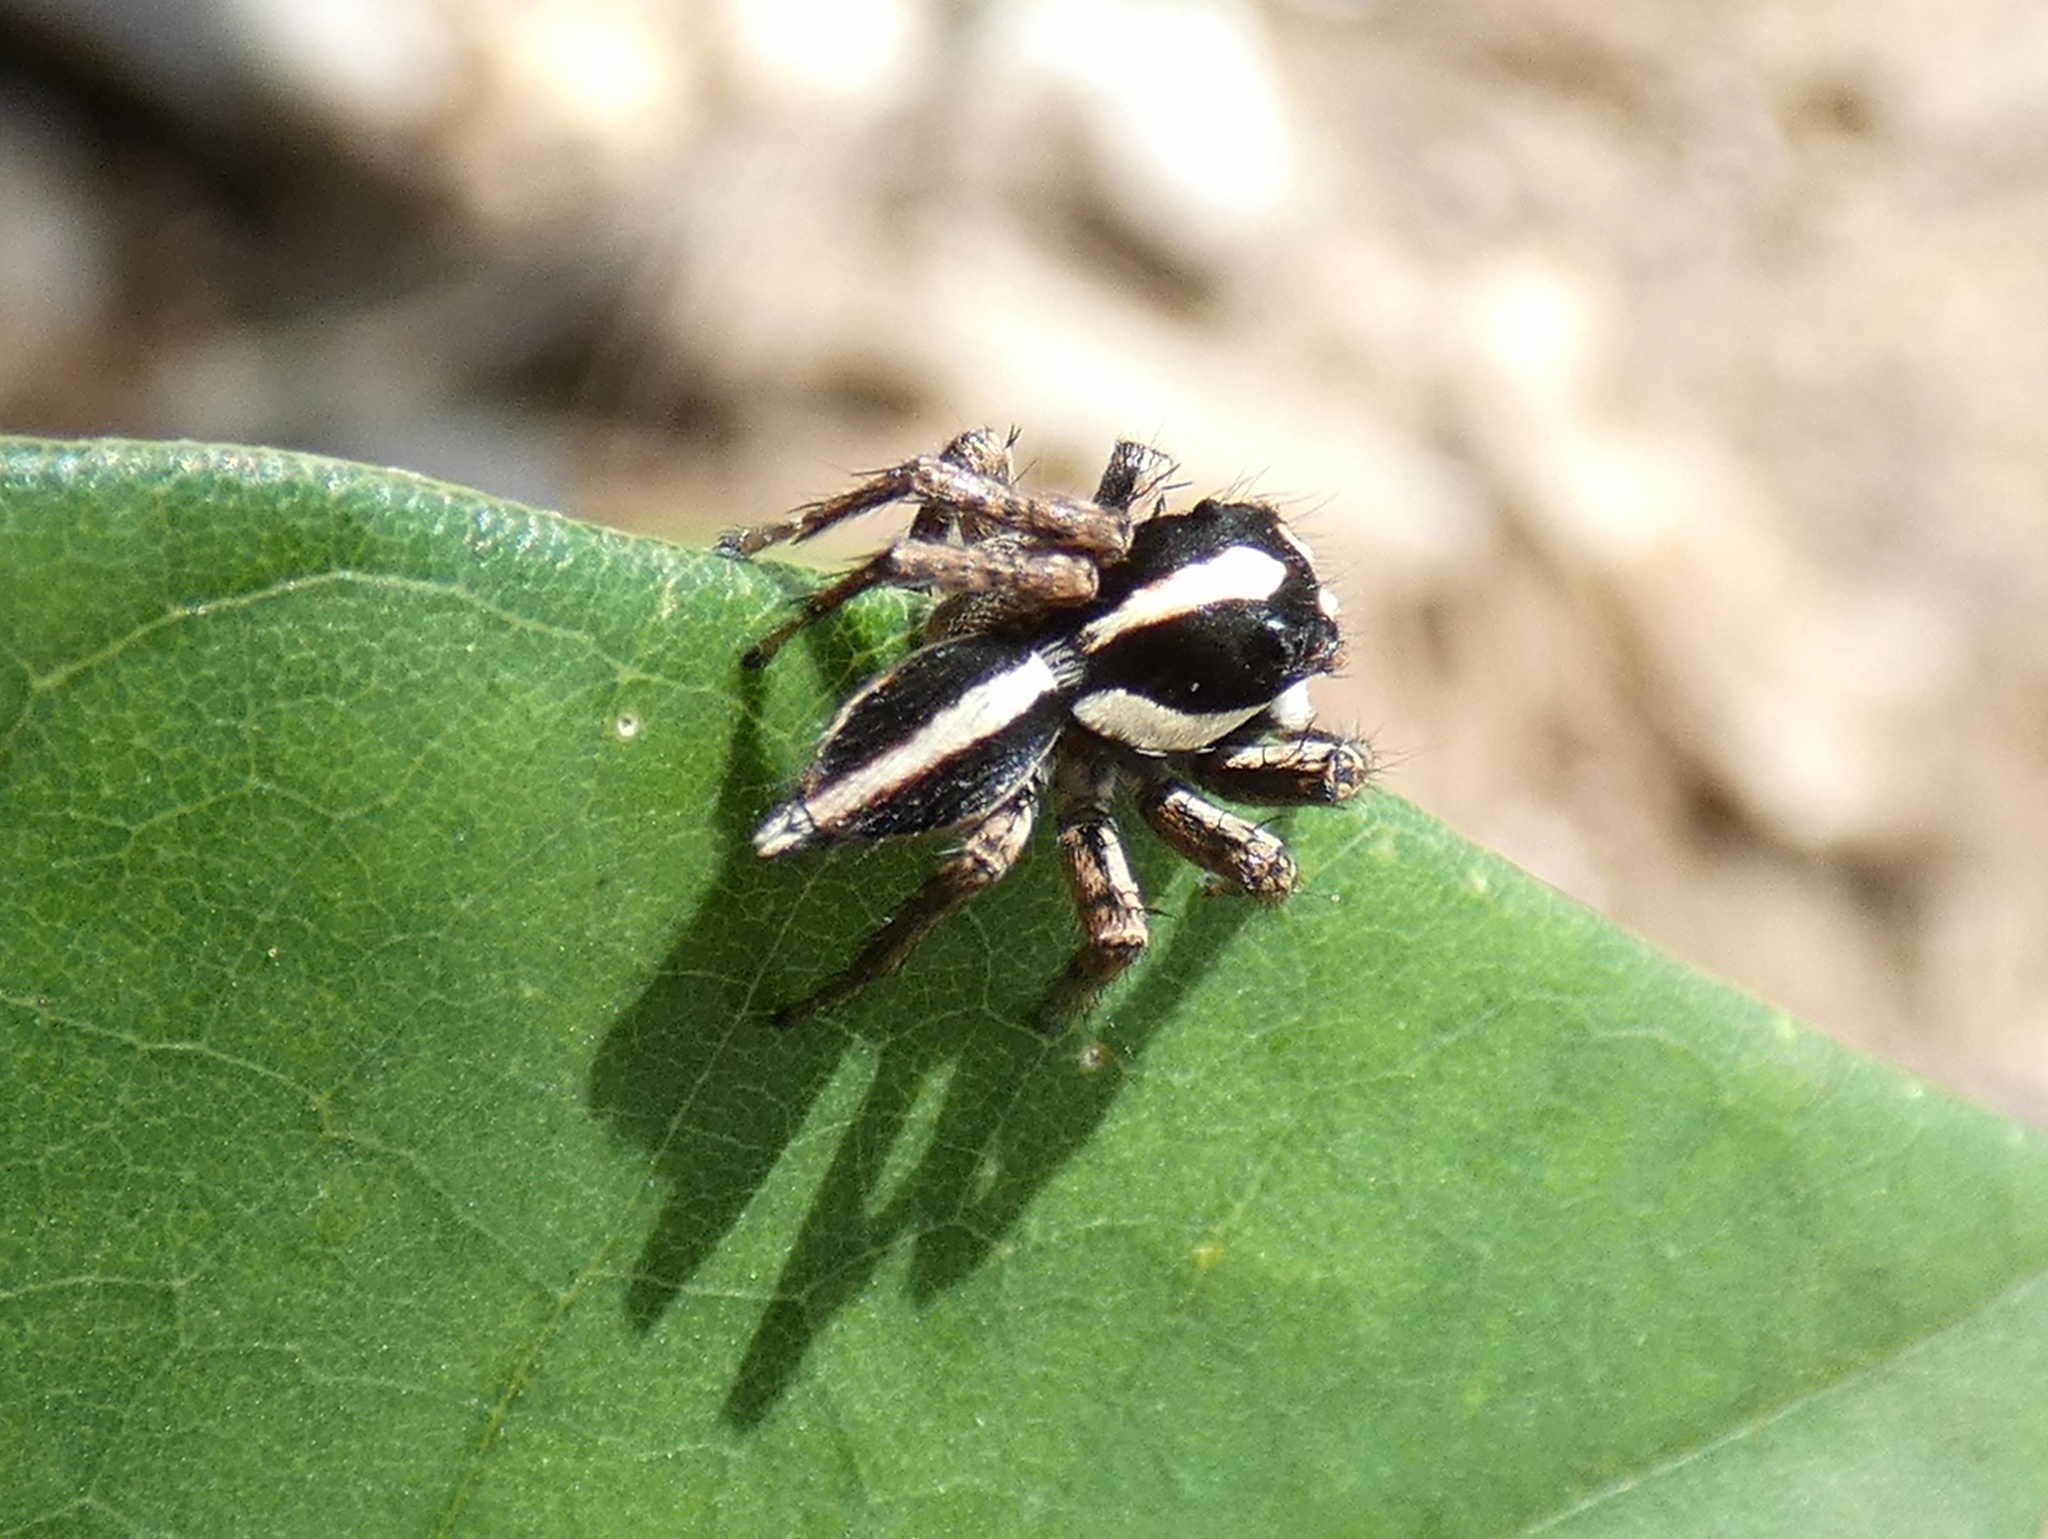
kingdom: Animalia
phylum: Arthropoda
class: Arachnida
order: Araneae
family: Salticidae
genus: Leptofreya
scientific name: Leptofreya ambigua
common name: Jumping spider
